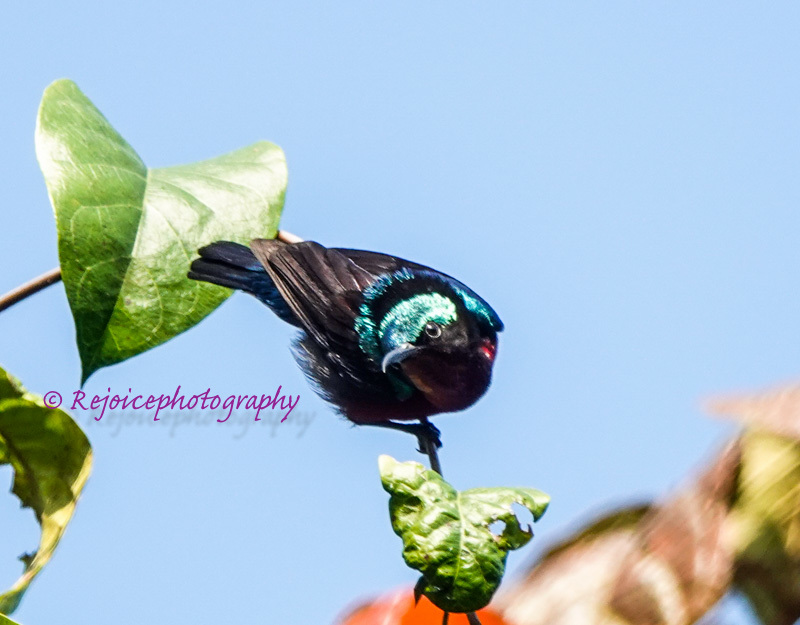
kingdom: Animalia
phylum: Chordata
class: Aves
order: Passeriformes
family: Nectariniidae
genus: Leptocoma
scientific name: Leptocoma brasiliana
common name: Van hasselt's sunbird
